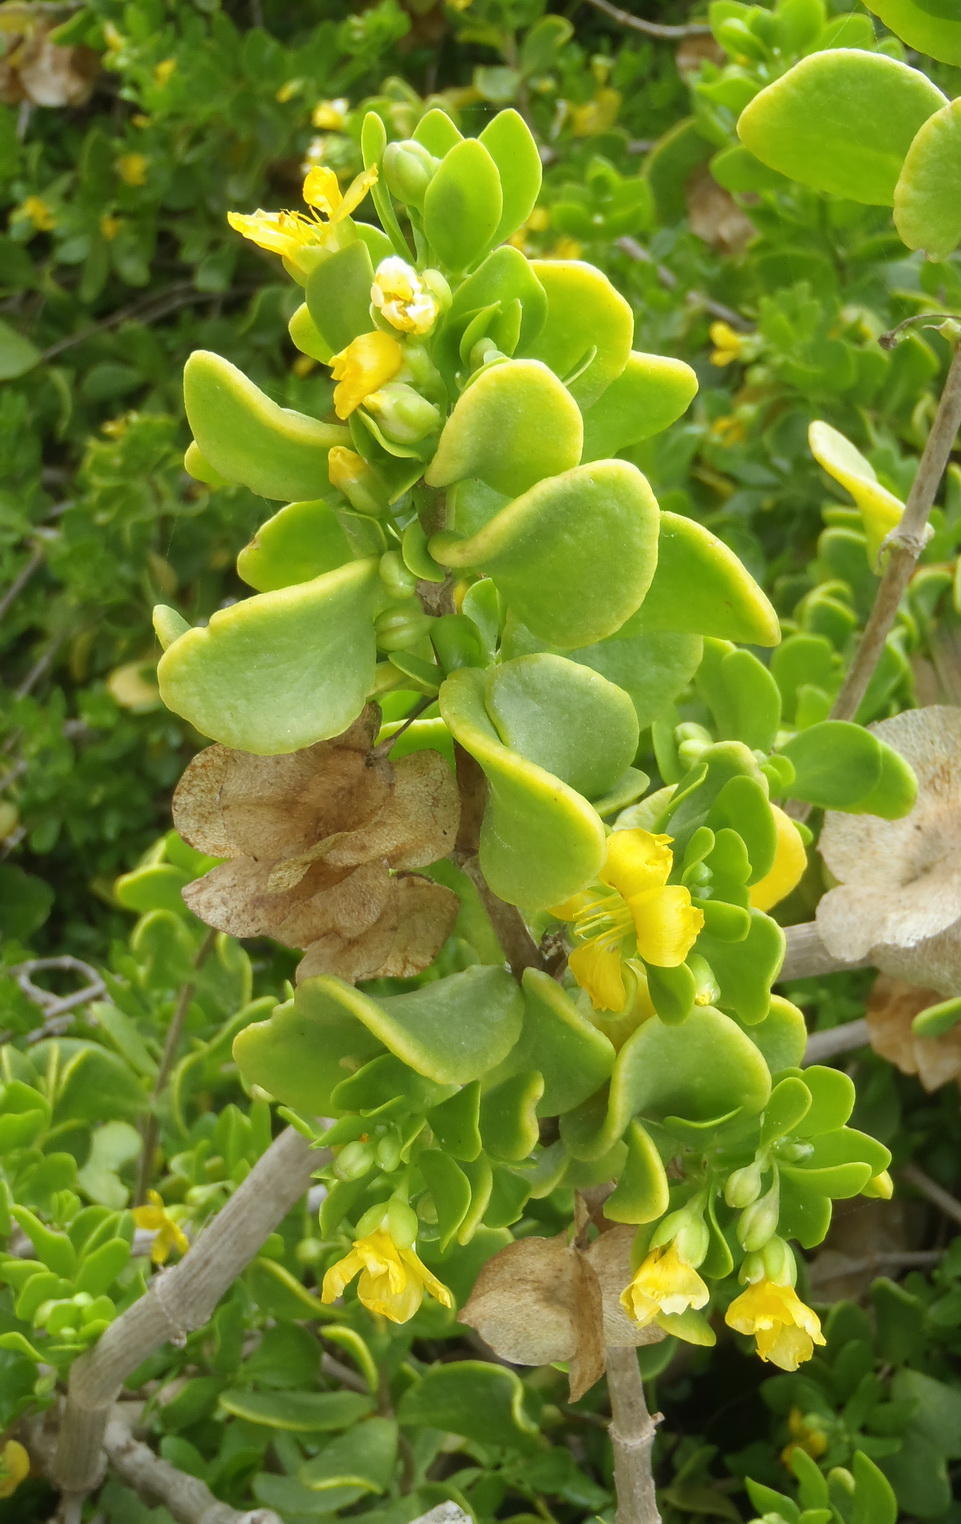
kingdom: Plantae
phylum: Tracheophyta
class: Magnoliopsida
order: Zygophyllales
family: Zygophyllaceae
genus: Roepera
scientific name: Roepera morgsana
